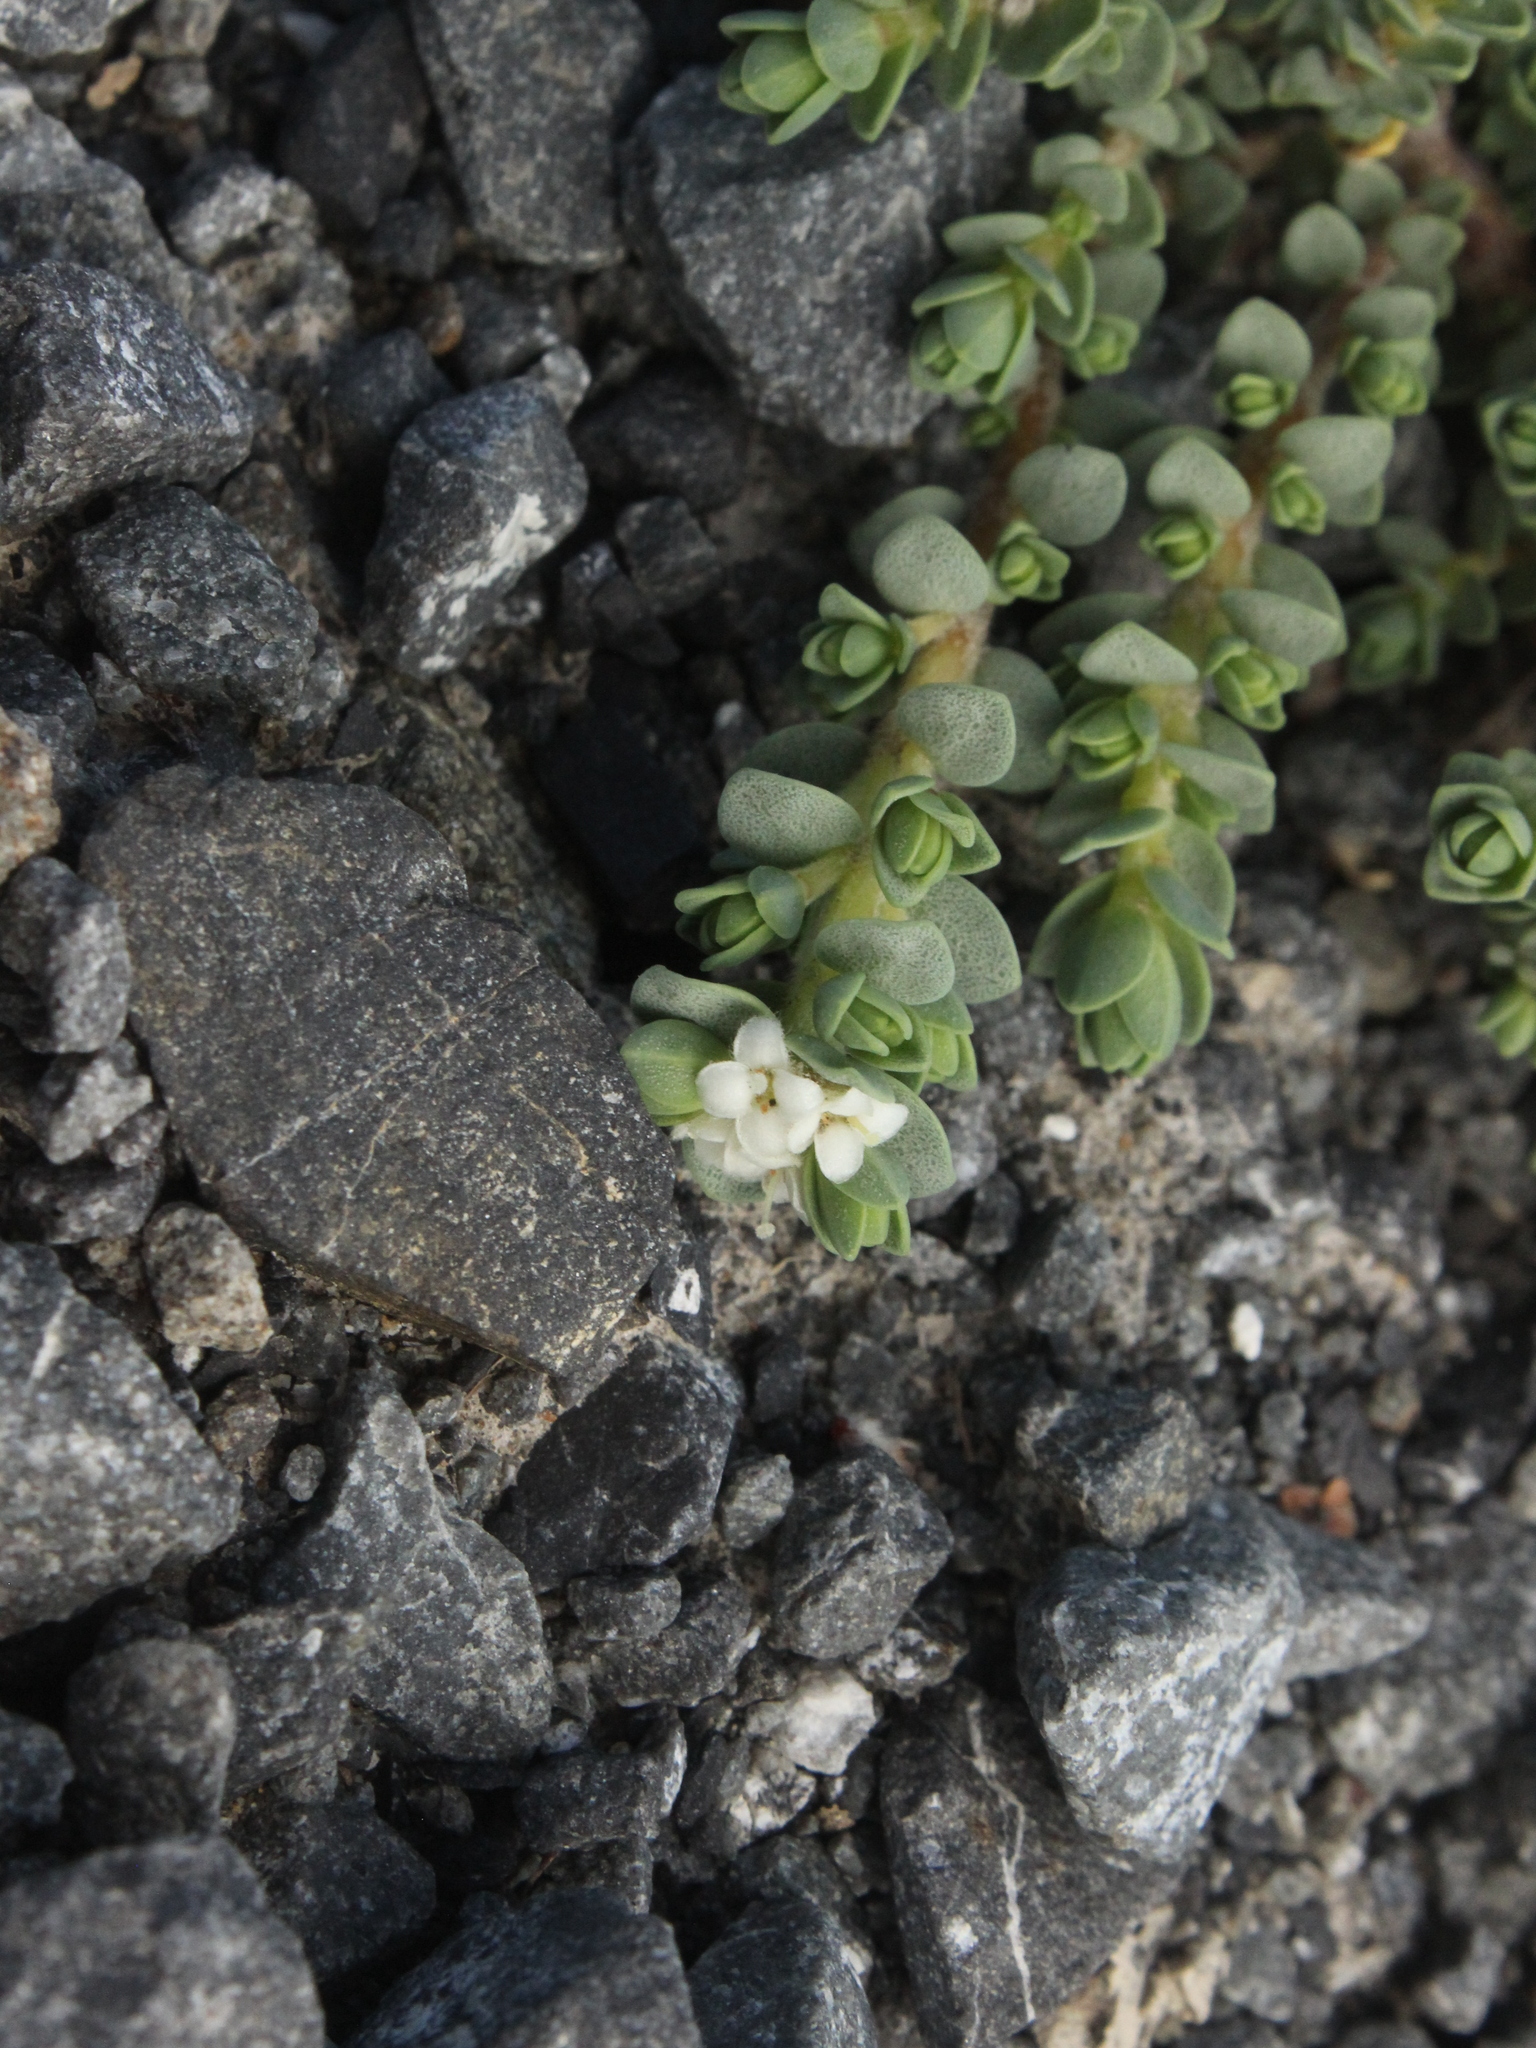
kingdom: Plantae
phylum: Tracheophyta
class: Magnoliopsida
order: Malvales
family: Thymelaeaceae
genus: Pimelea
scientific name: Pimelea prostrata
